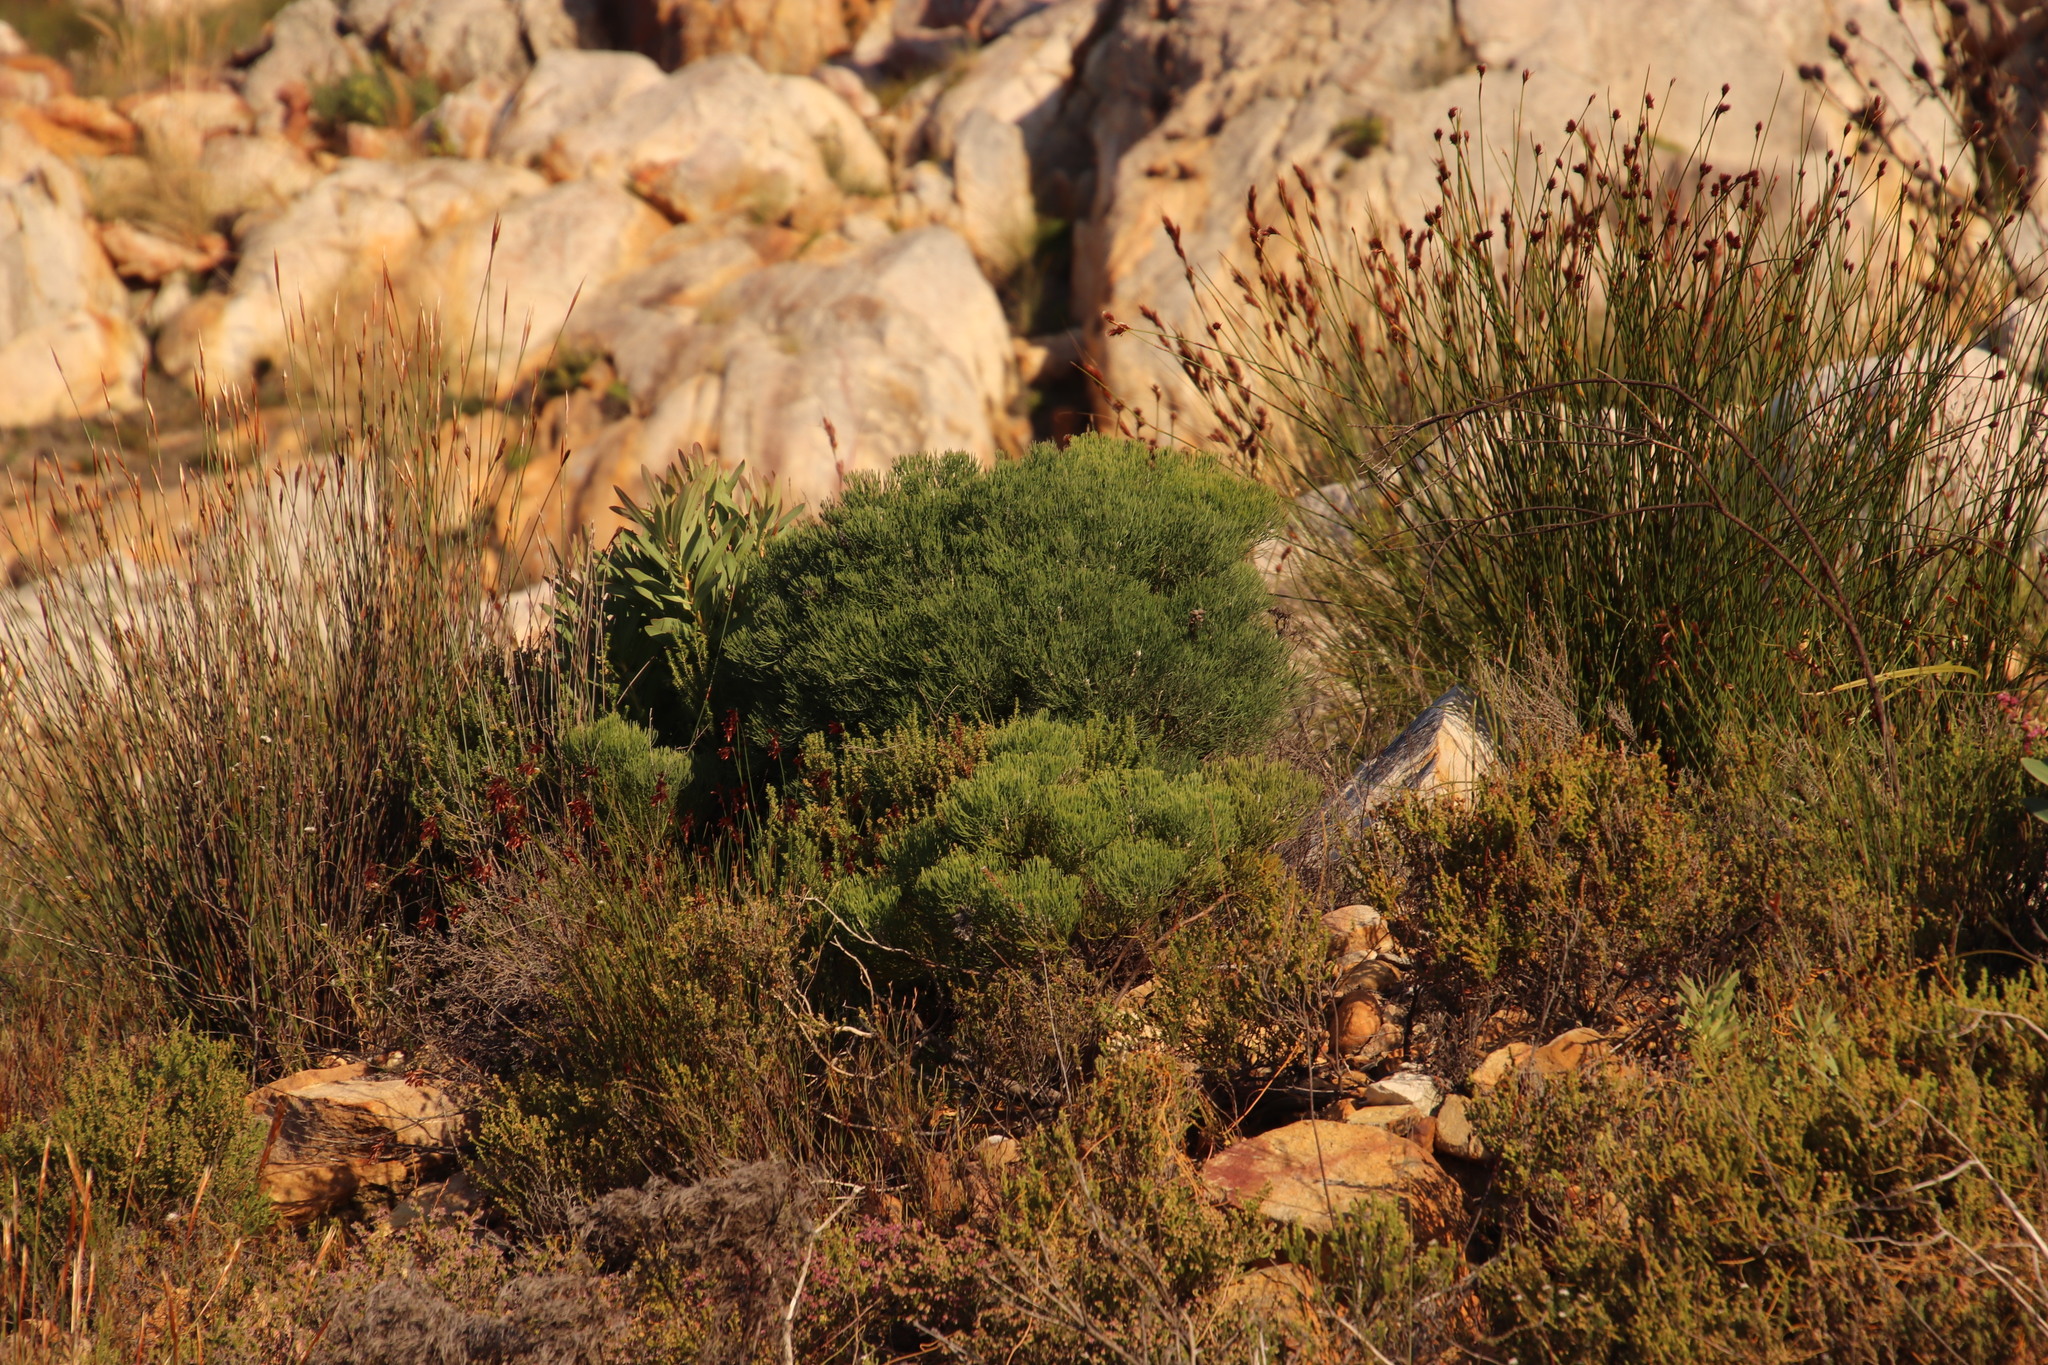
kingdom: Plantae
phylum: Tracheophyta
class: Magnoliopsida
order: Proteales
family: Proteaceae
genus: Paranomus
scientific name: Paranomus spicatus
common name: Kogelberg sceptre
